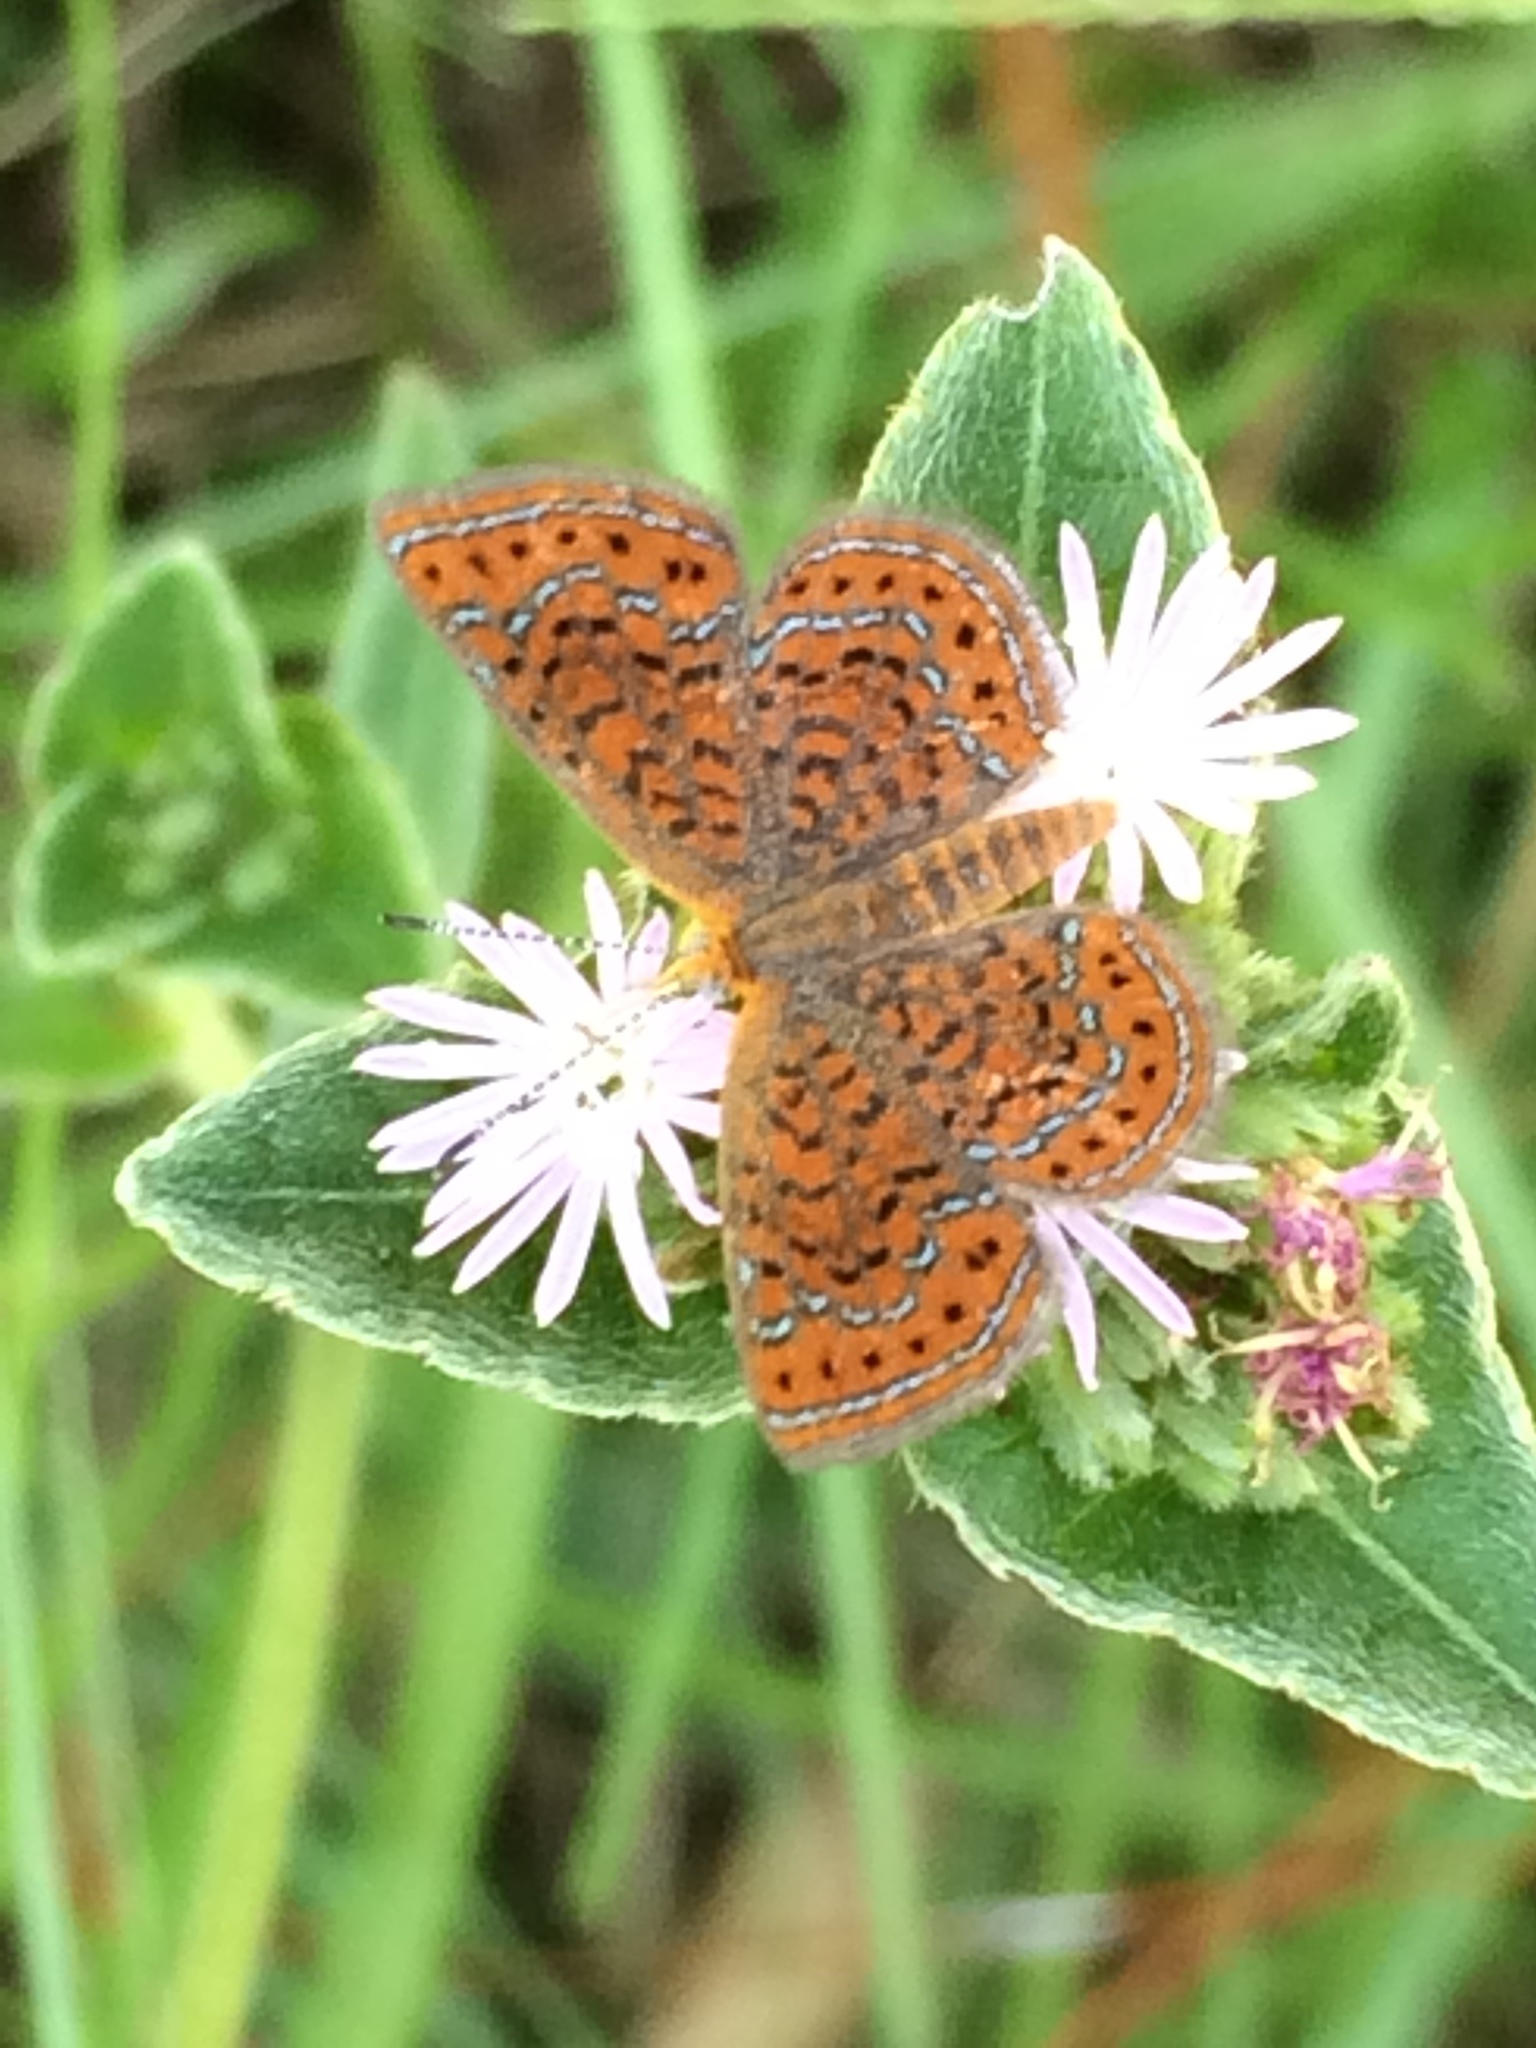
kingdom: Animalia
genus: Calephelis
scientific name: Calephelis virginiensis
